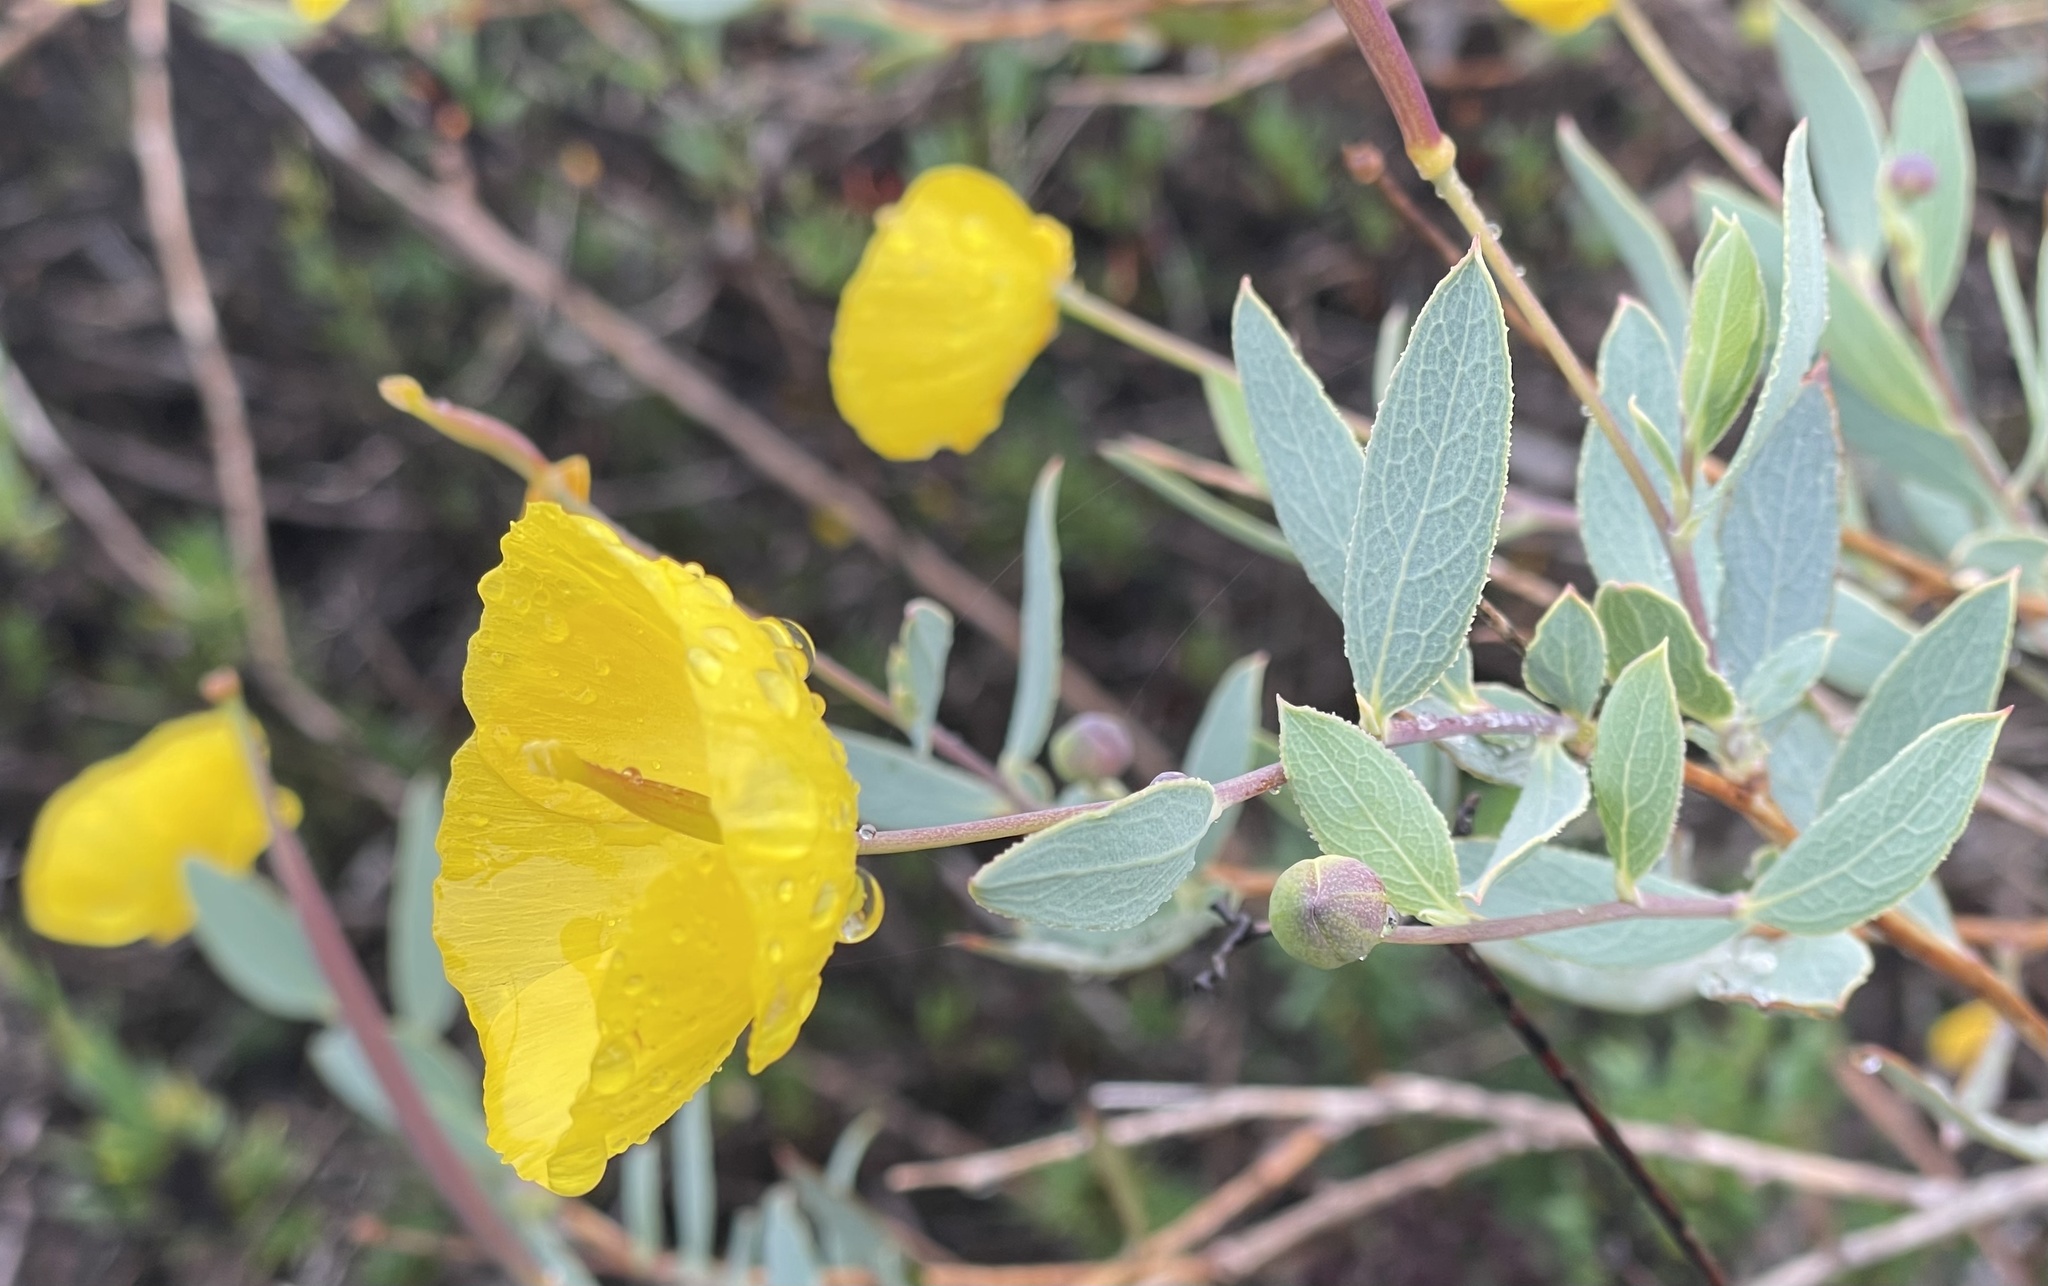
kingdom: Plantae
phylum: Tracheophyta
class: Magnoliopsida
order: Ranunculales
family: Papaveraceae
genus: Dendromecon
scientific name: Dendromecon rigida
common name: Tree poppy
